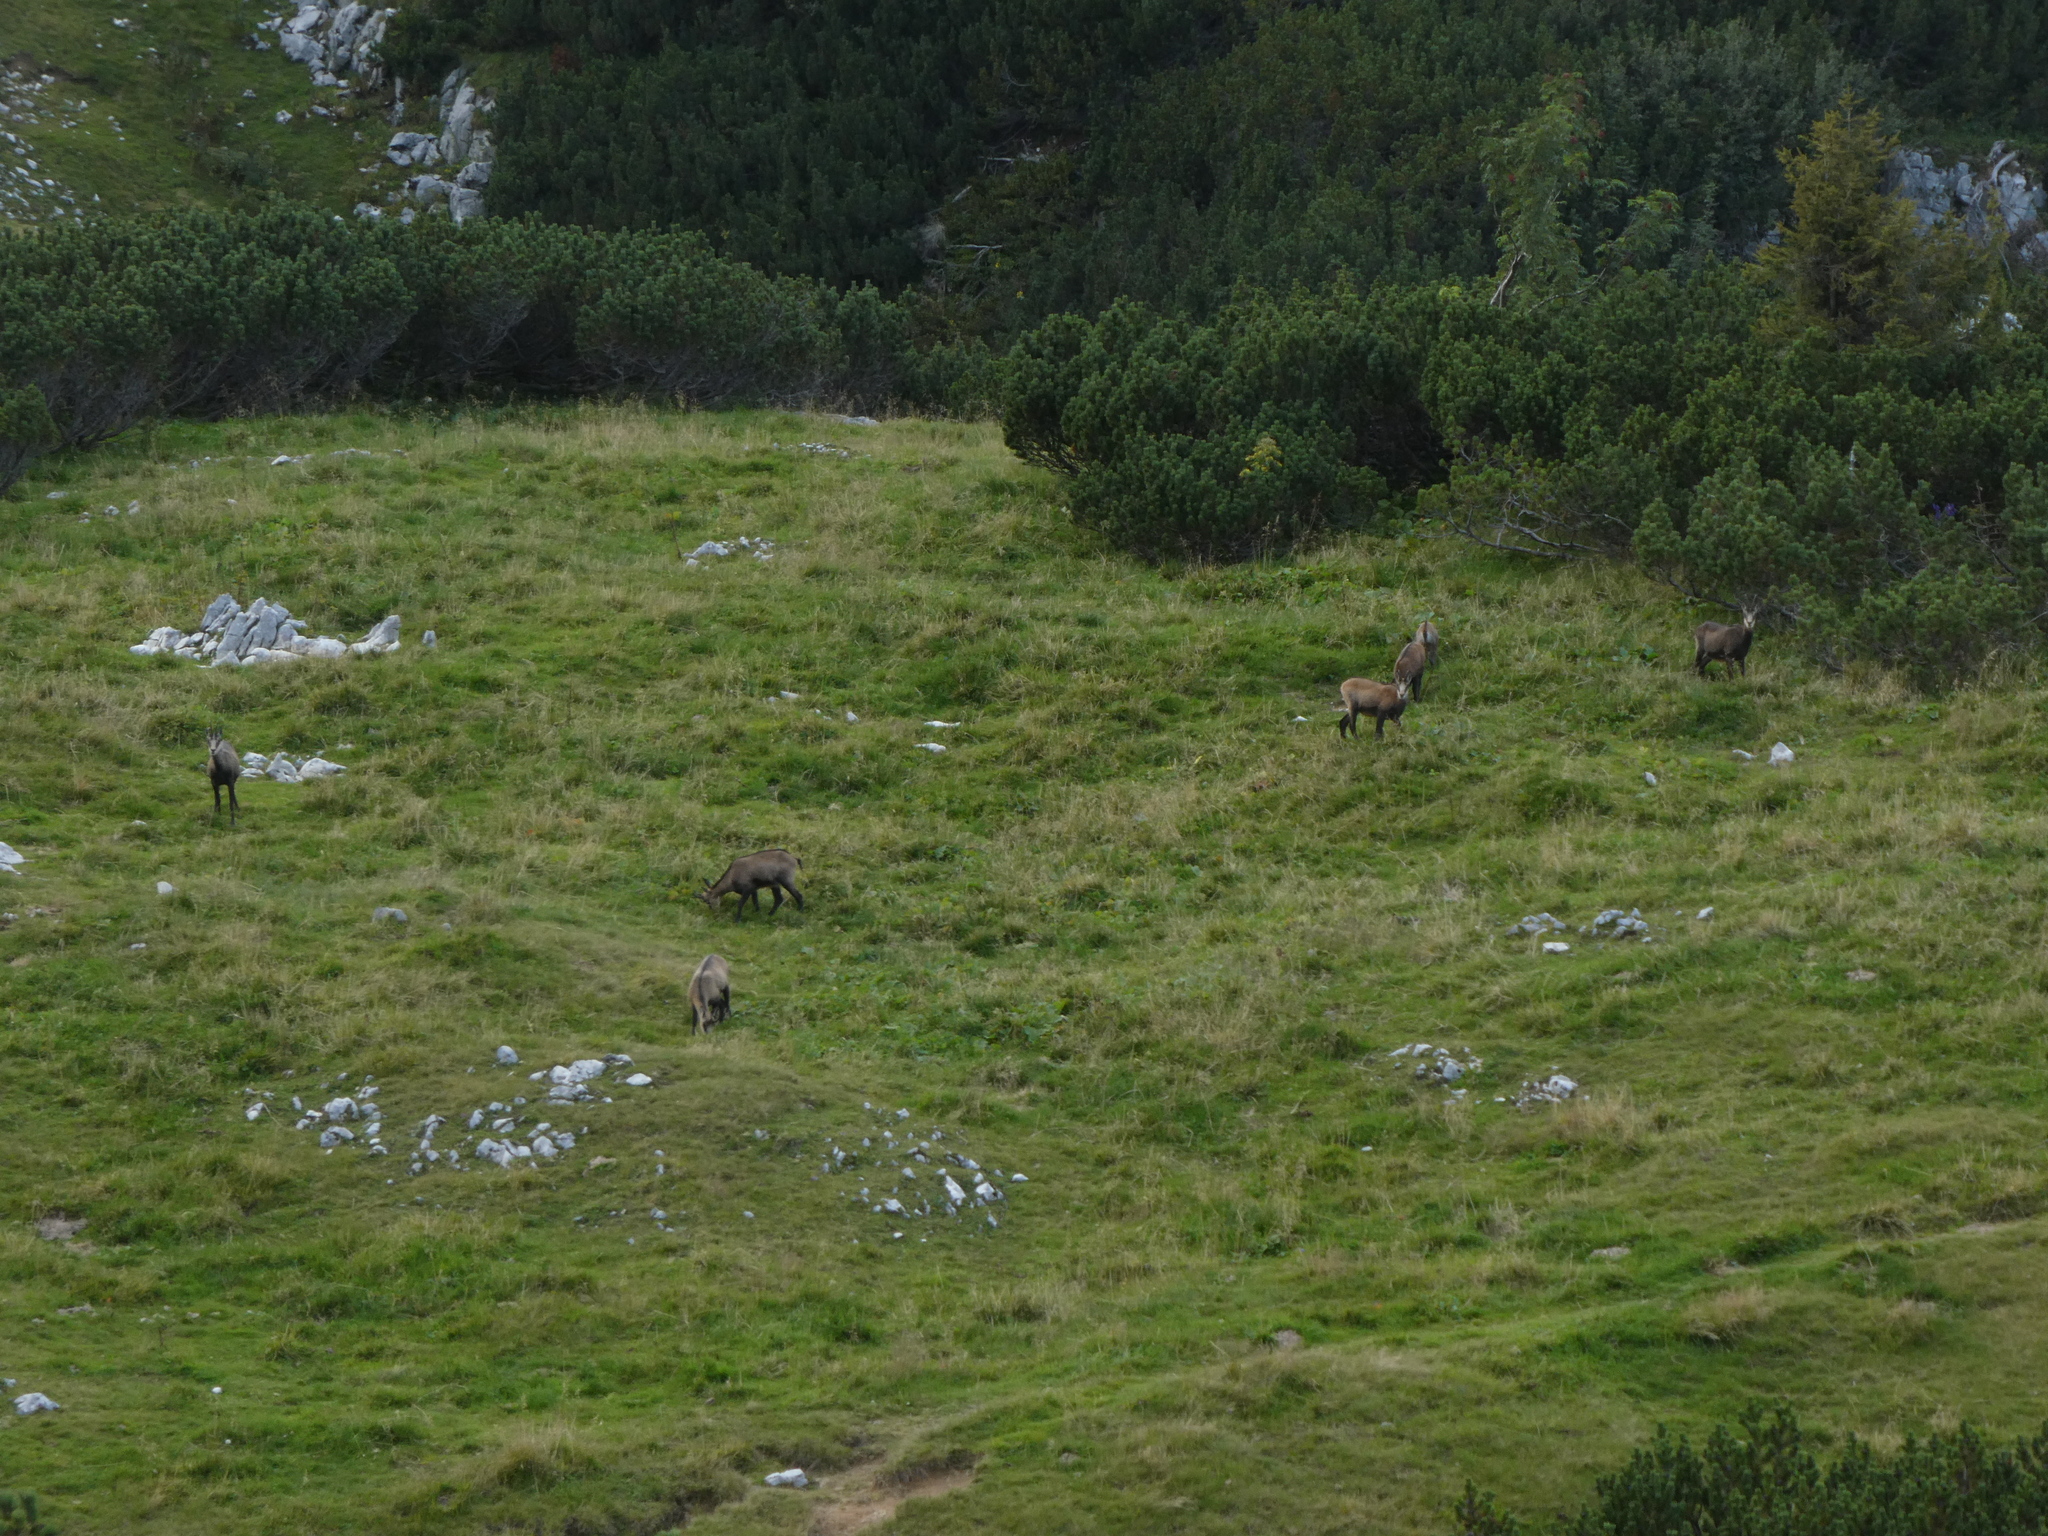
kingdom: Animalia
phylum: Chordata
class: Mammalia
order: Artiodactyla
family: Bovidae
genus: Rupicapra
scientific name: Rupicapra rupicapra
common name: Chamois
